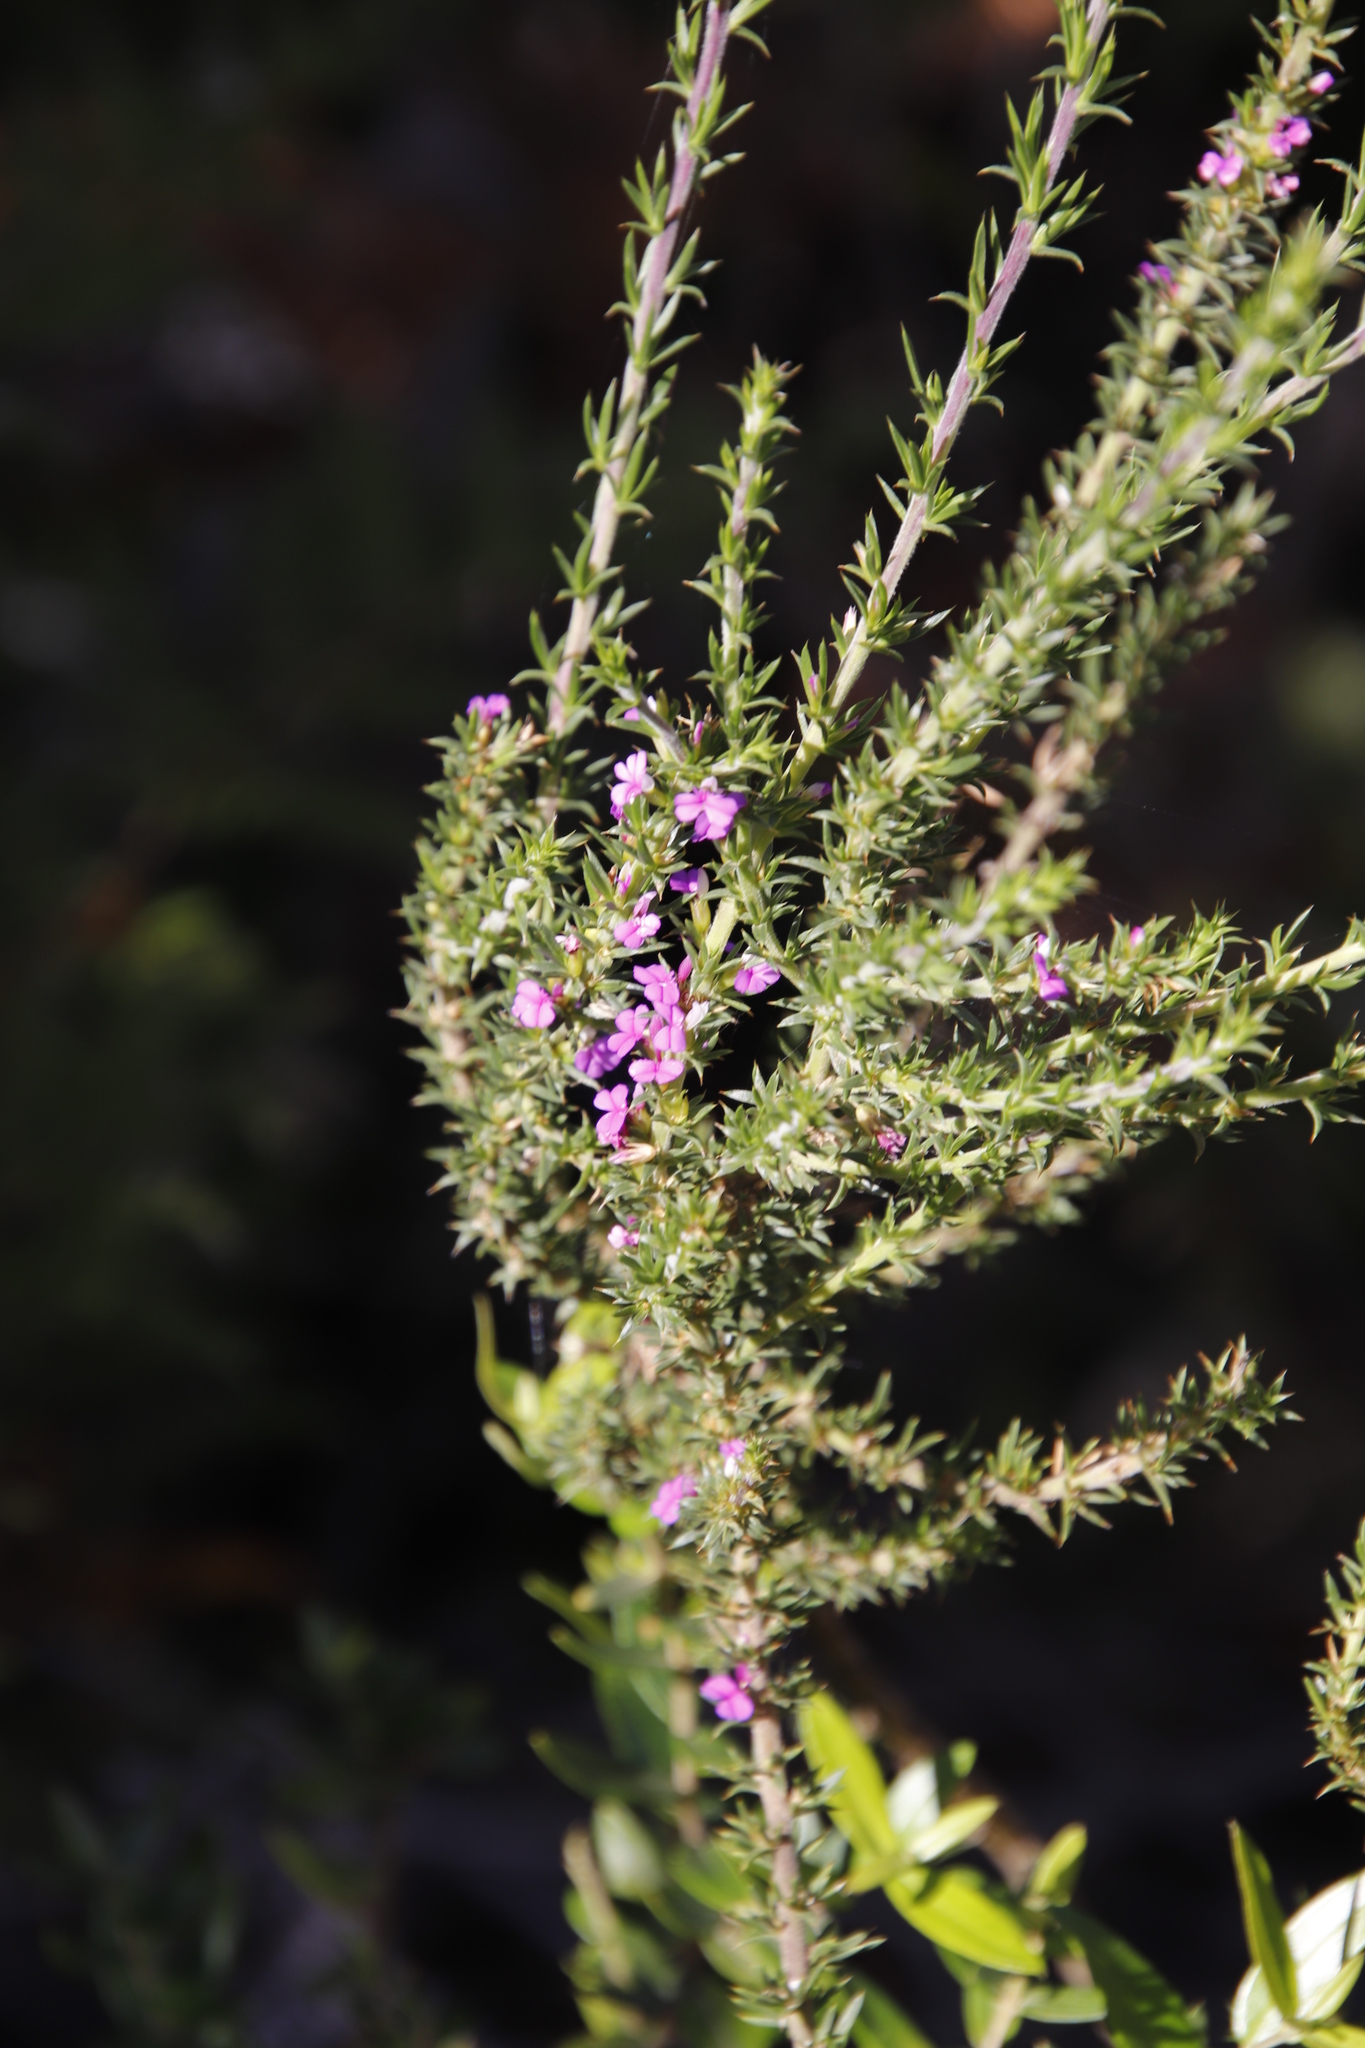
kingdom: Plantae
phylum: Tracheophyta
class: Magnoliopsida
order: Fabales
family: Polygalaceae
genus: Muraltia
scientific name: Muraltia heisteria
